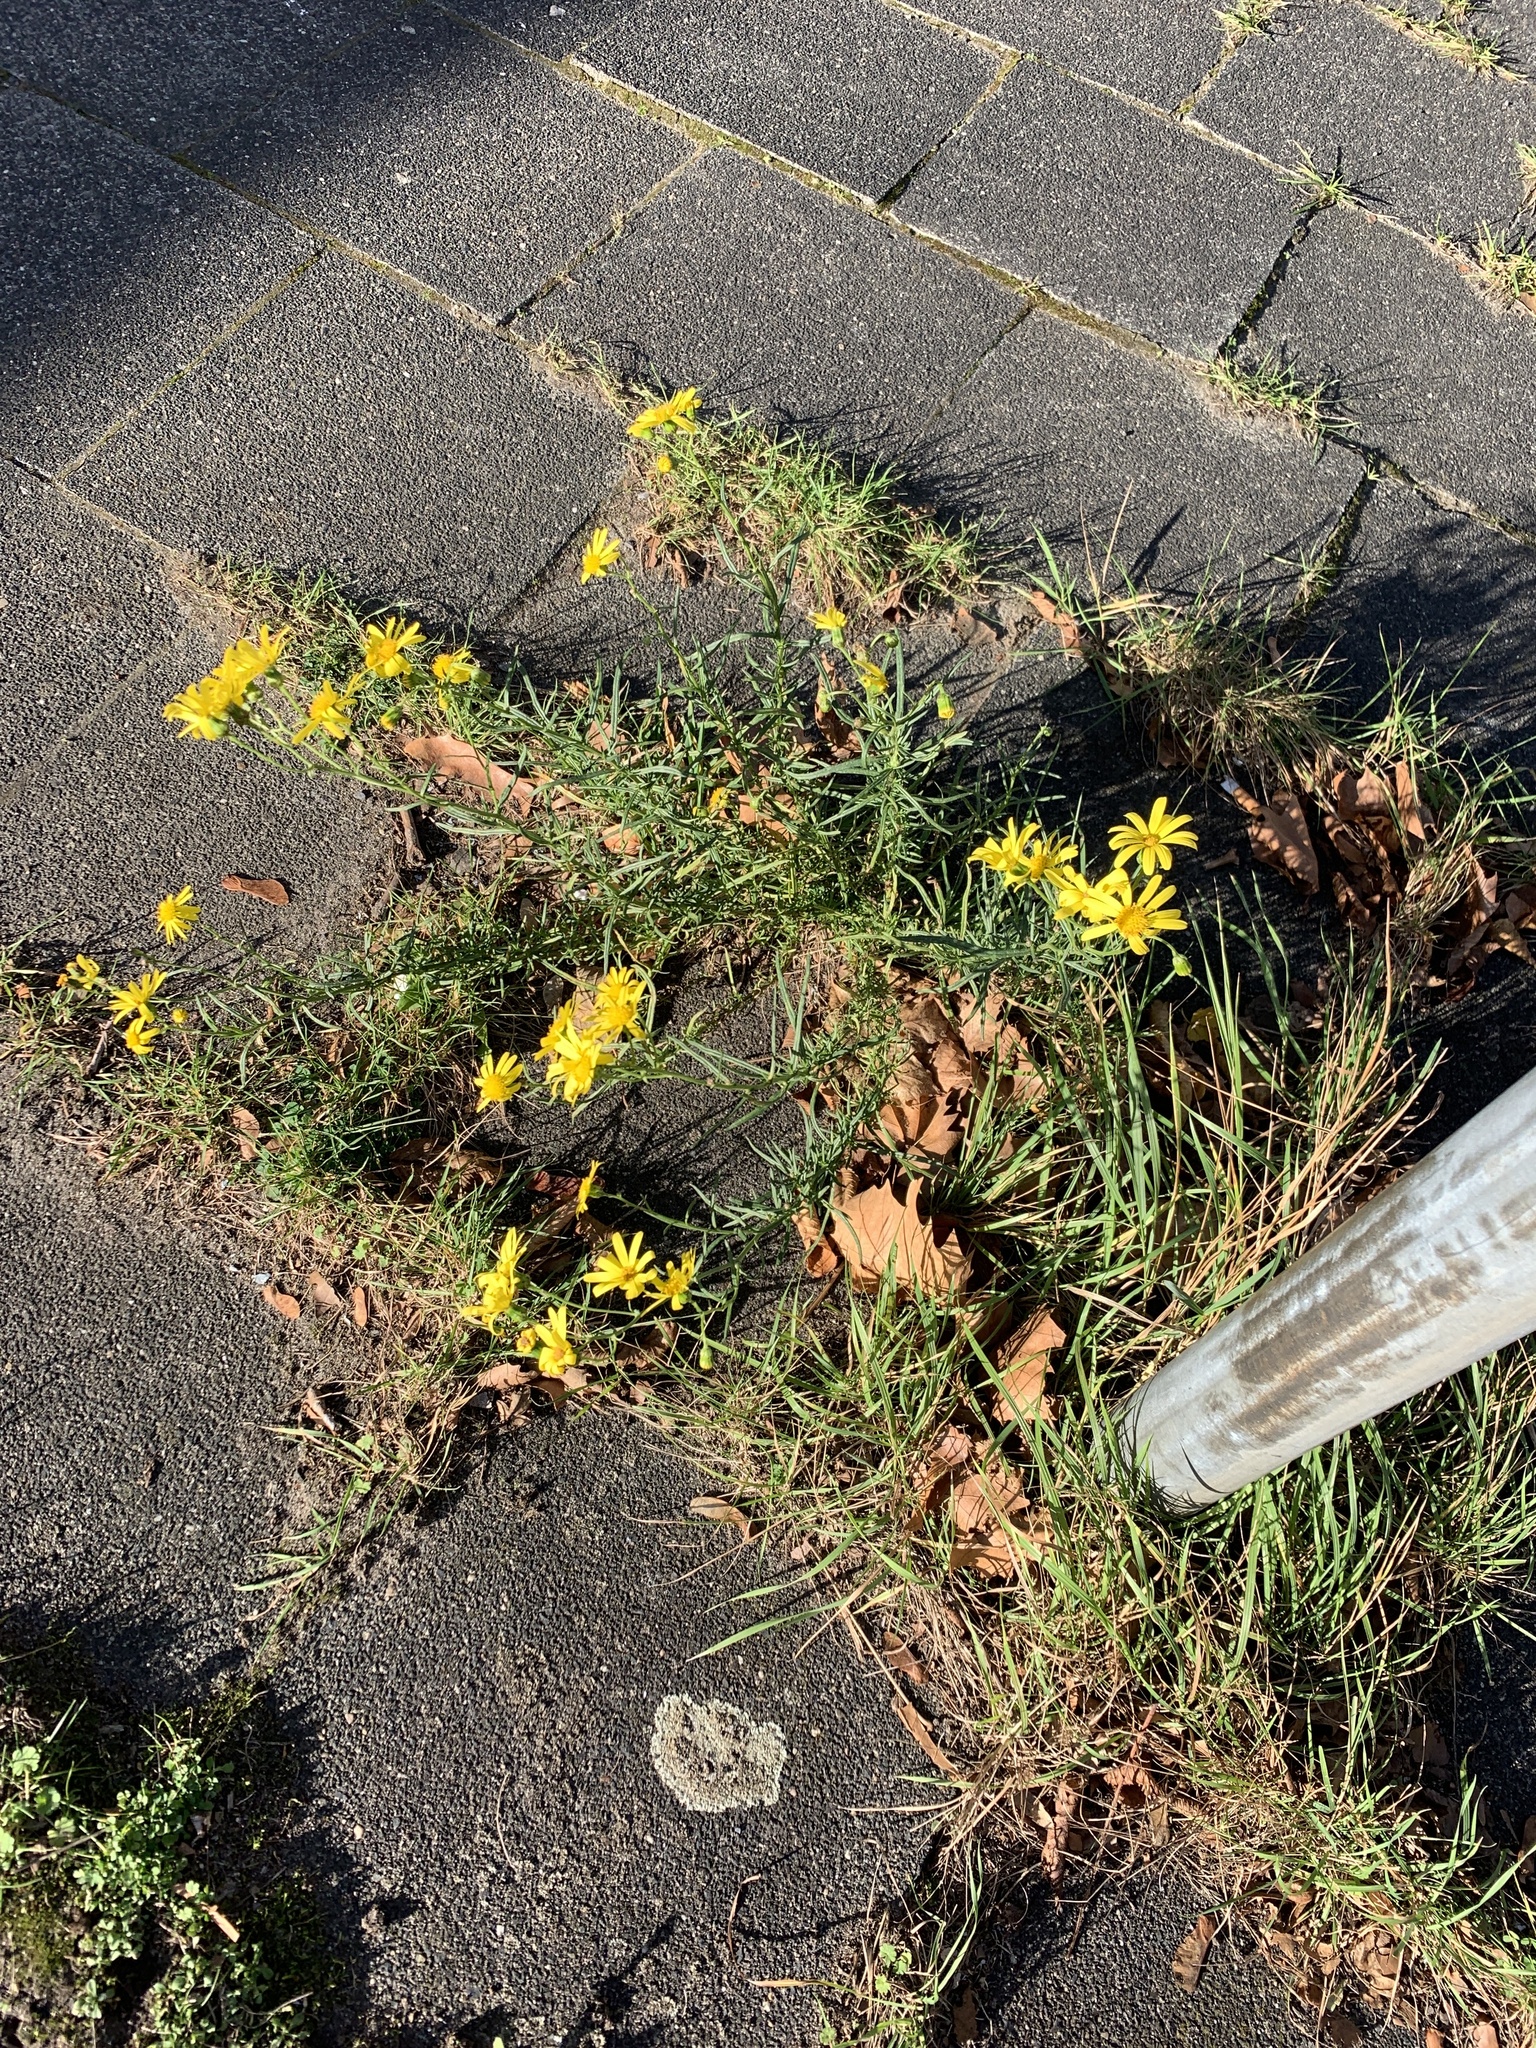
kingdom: Plantae
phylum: Tracheophyta
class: Magnoliopsida
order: Asterales
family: Asteraceae
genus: Senecio
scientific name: Senecio inaequidens
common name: Narrow-leaved ragwort
